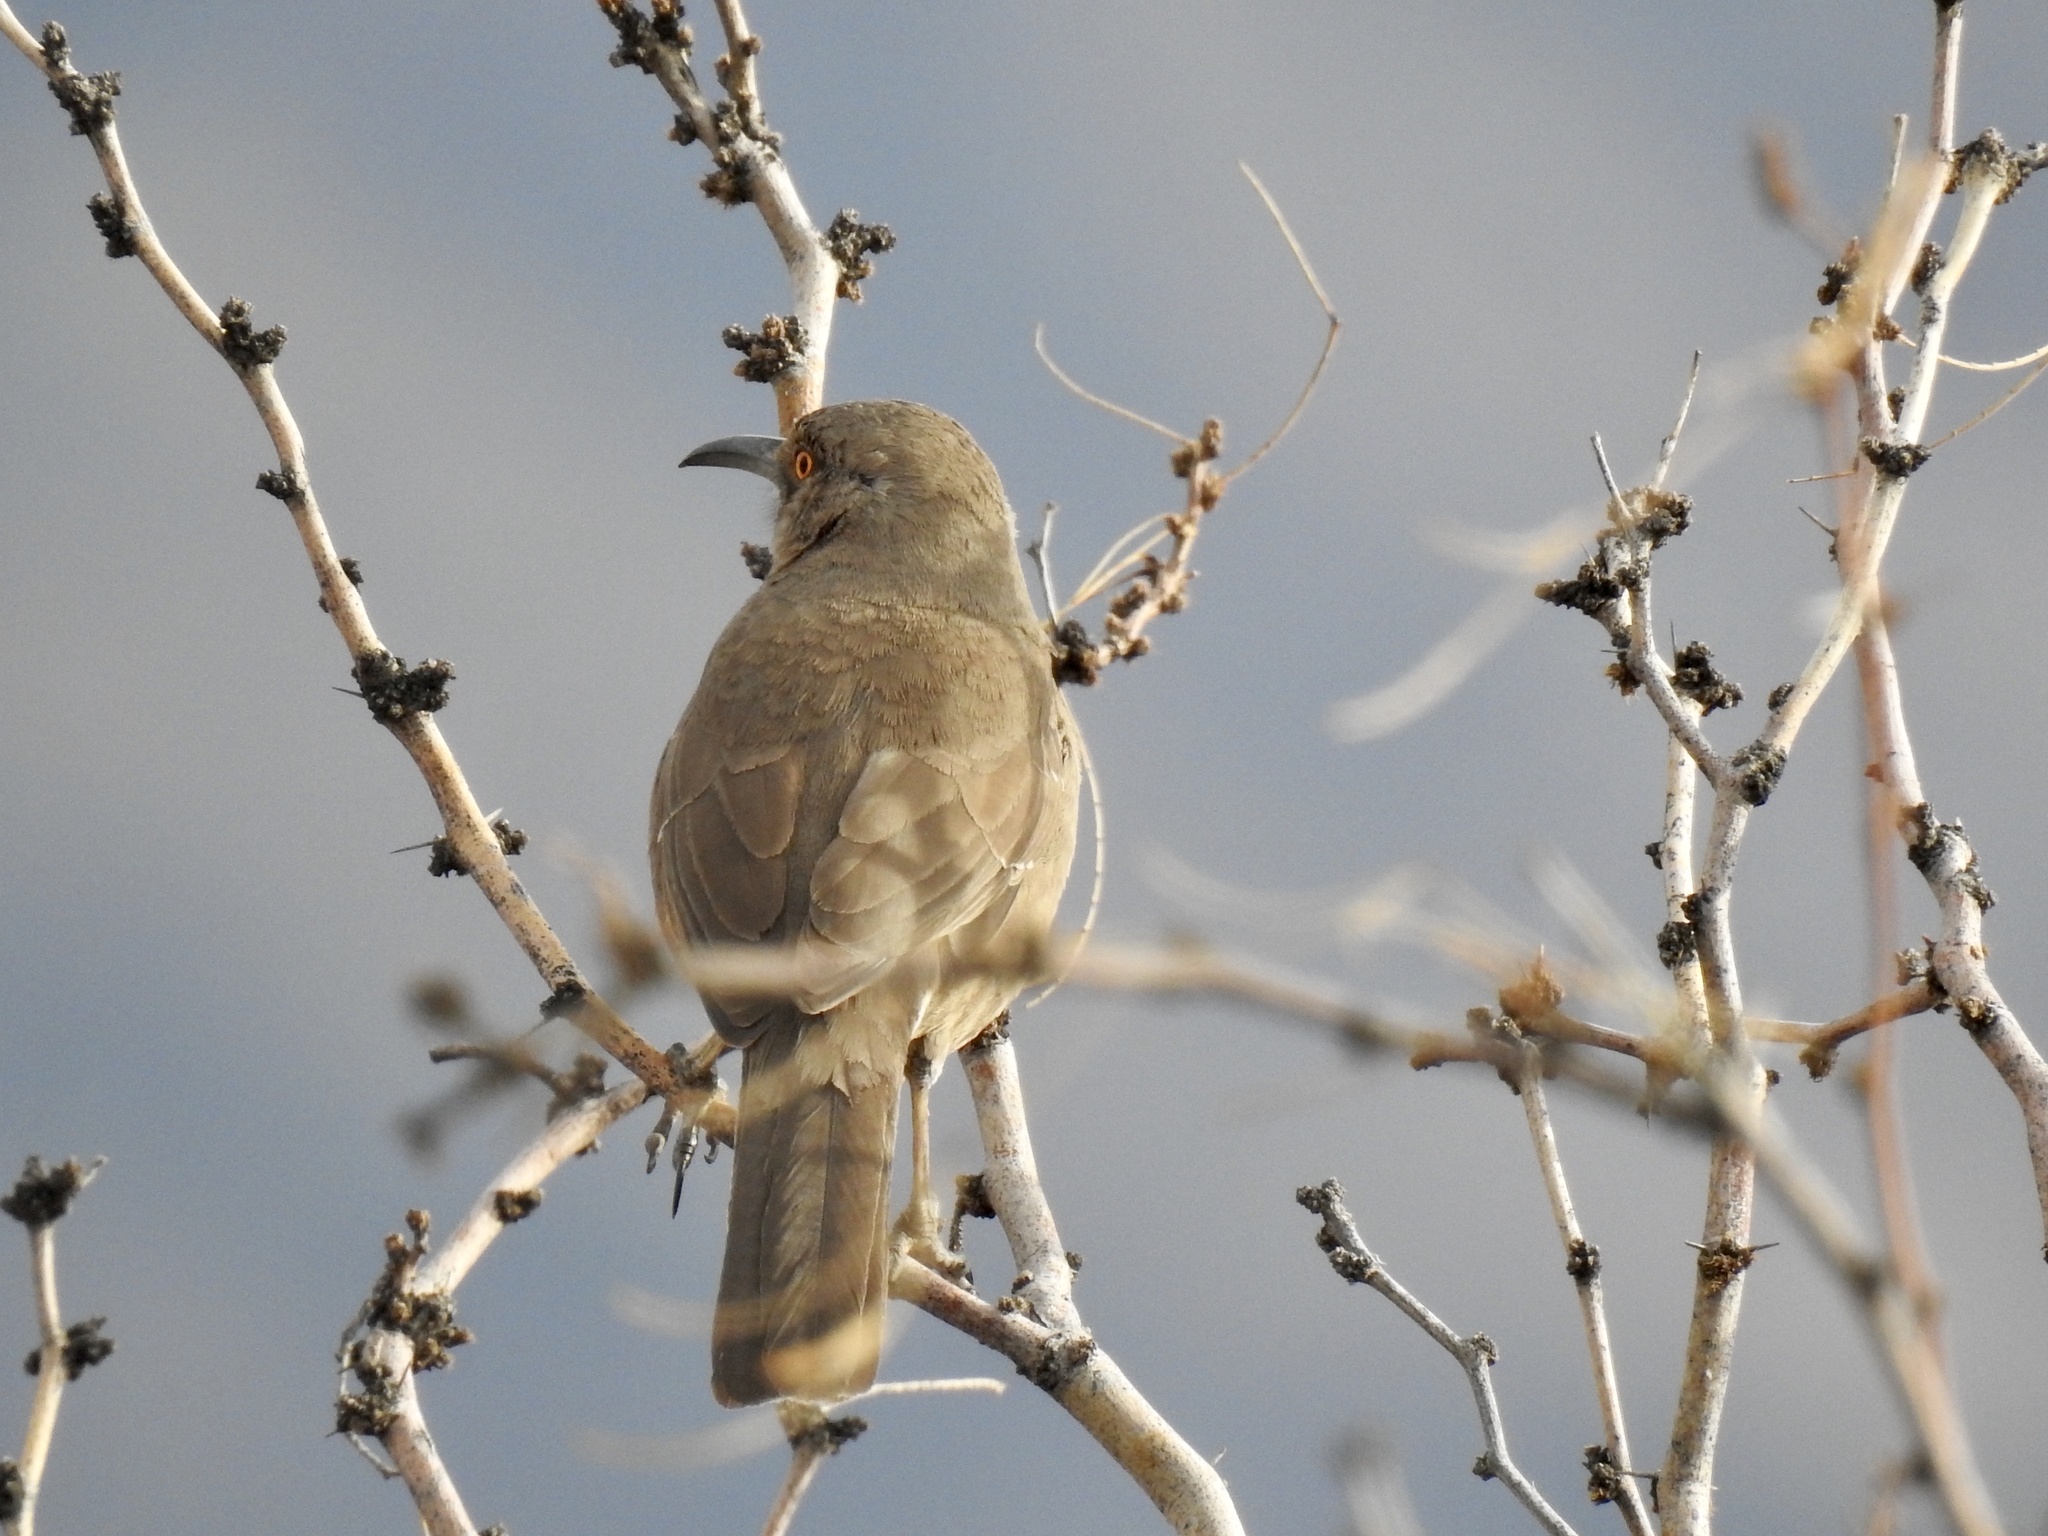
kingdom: Animalia
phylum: Chordata
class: Aves
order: Passeriformes
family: Mimidae
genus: Toxostoma
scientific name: Toxostoma curvirostre
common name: Curve-billed thrasher
